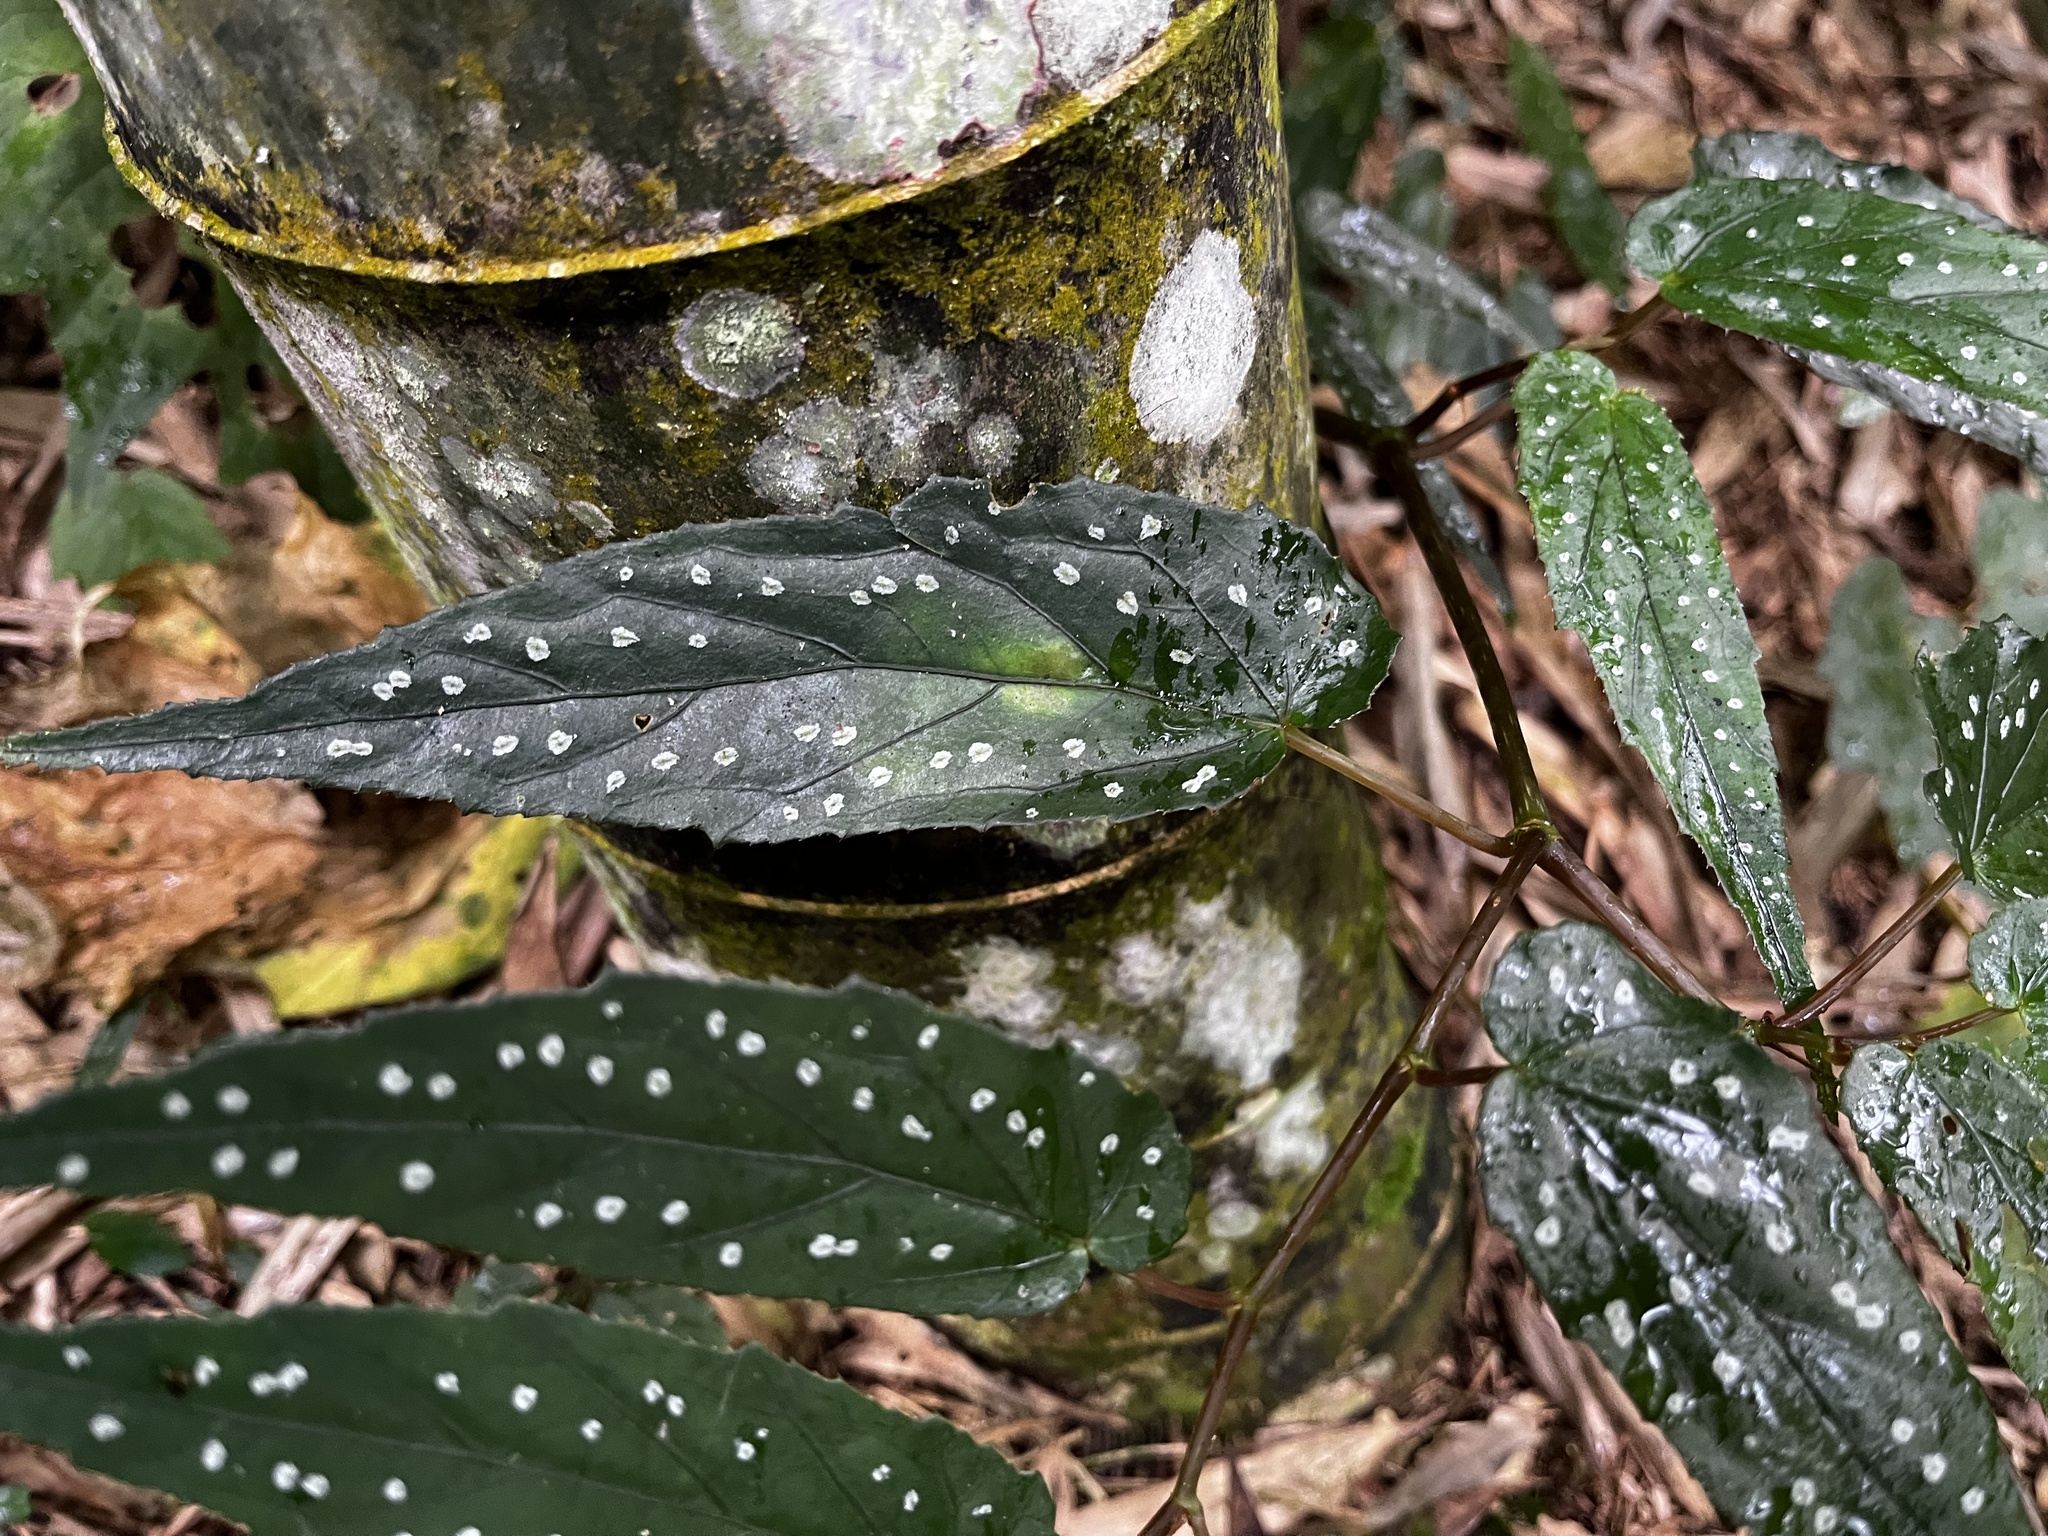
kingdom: Plantae
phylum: Tracheophyta
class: Magnoliopsida
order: Cucurbitales
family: Begoniaceae
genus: Begonia
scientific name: Begonia taiwaniana
